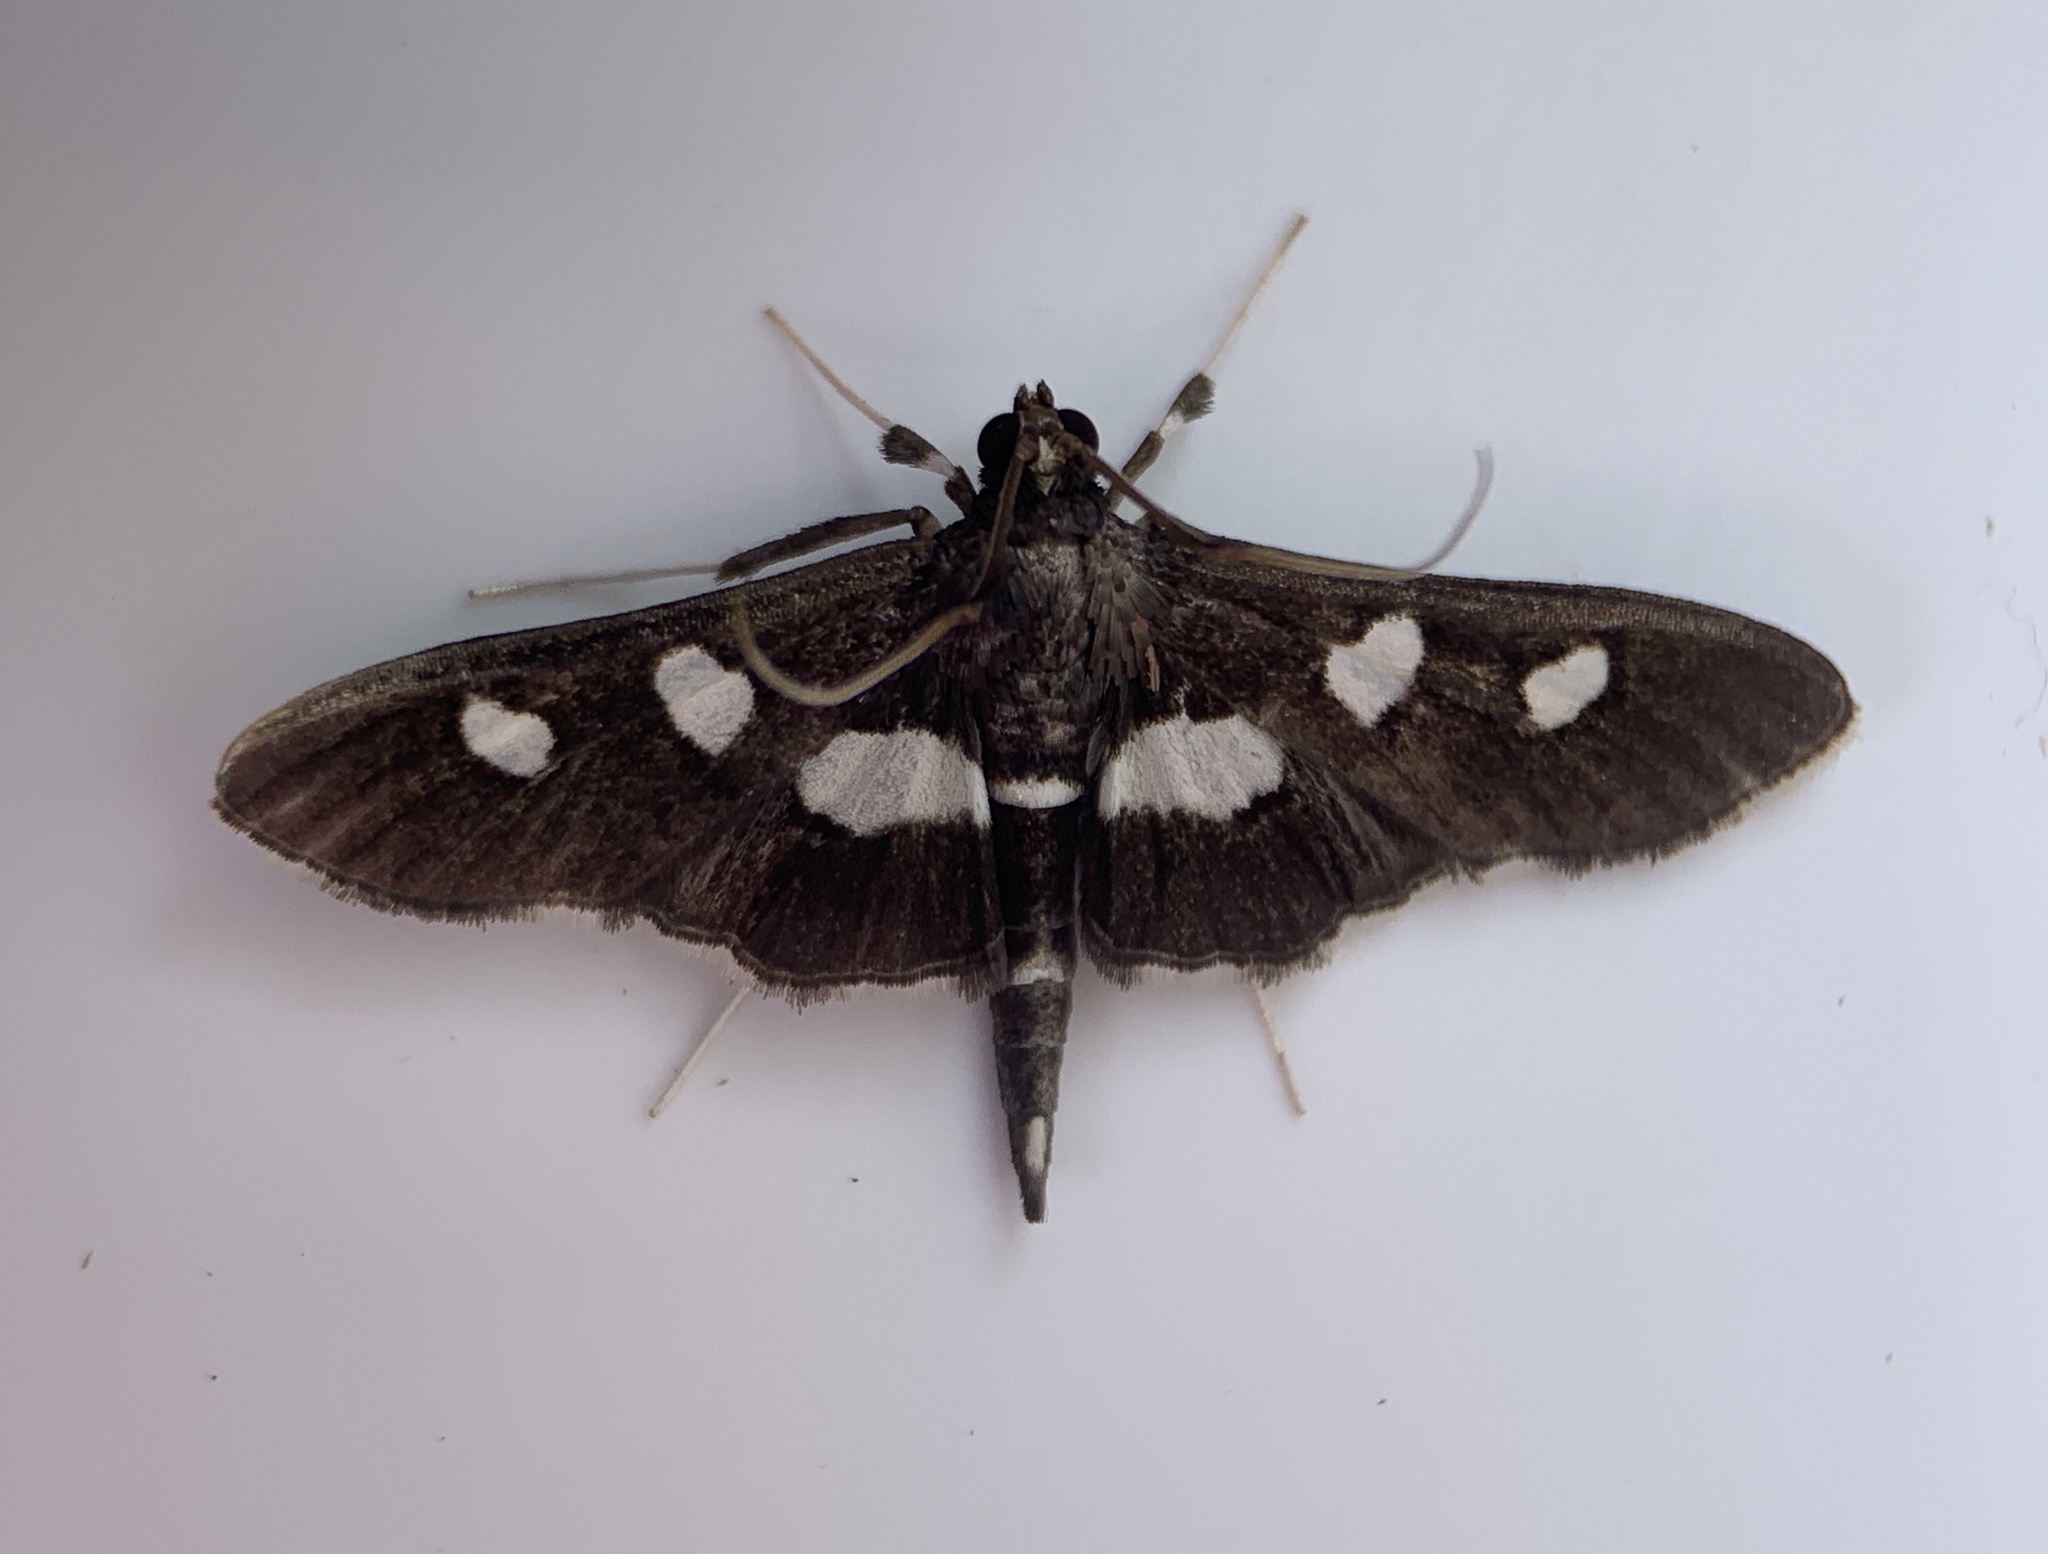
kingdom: Animalia
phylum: Arthropoda
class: Insecta
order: Lepidoptera
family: Crambidae
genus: Desmia
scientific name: Desmia funeralis
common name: Grape leaf folder moth
